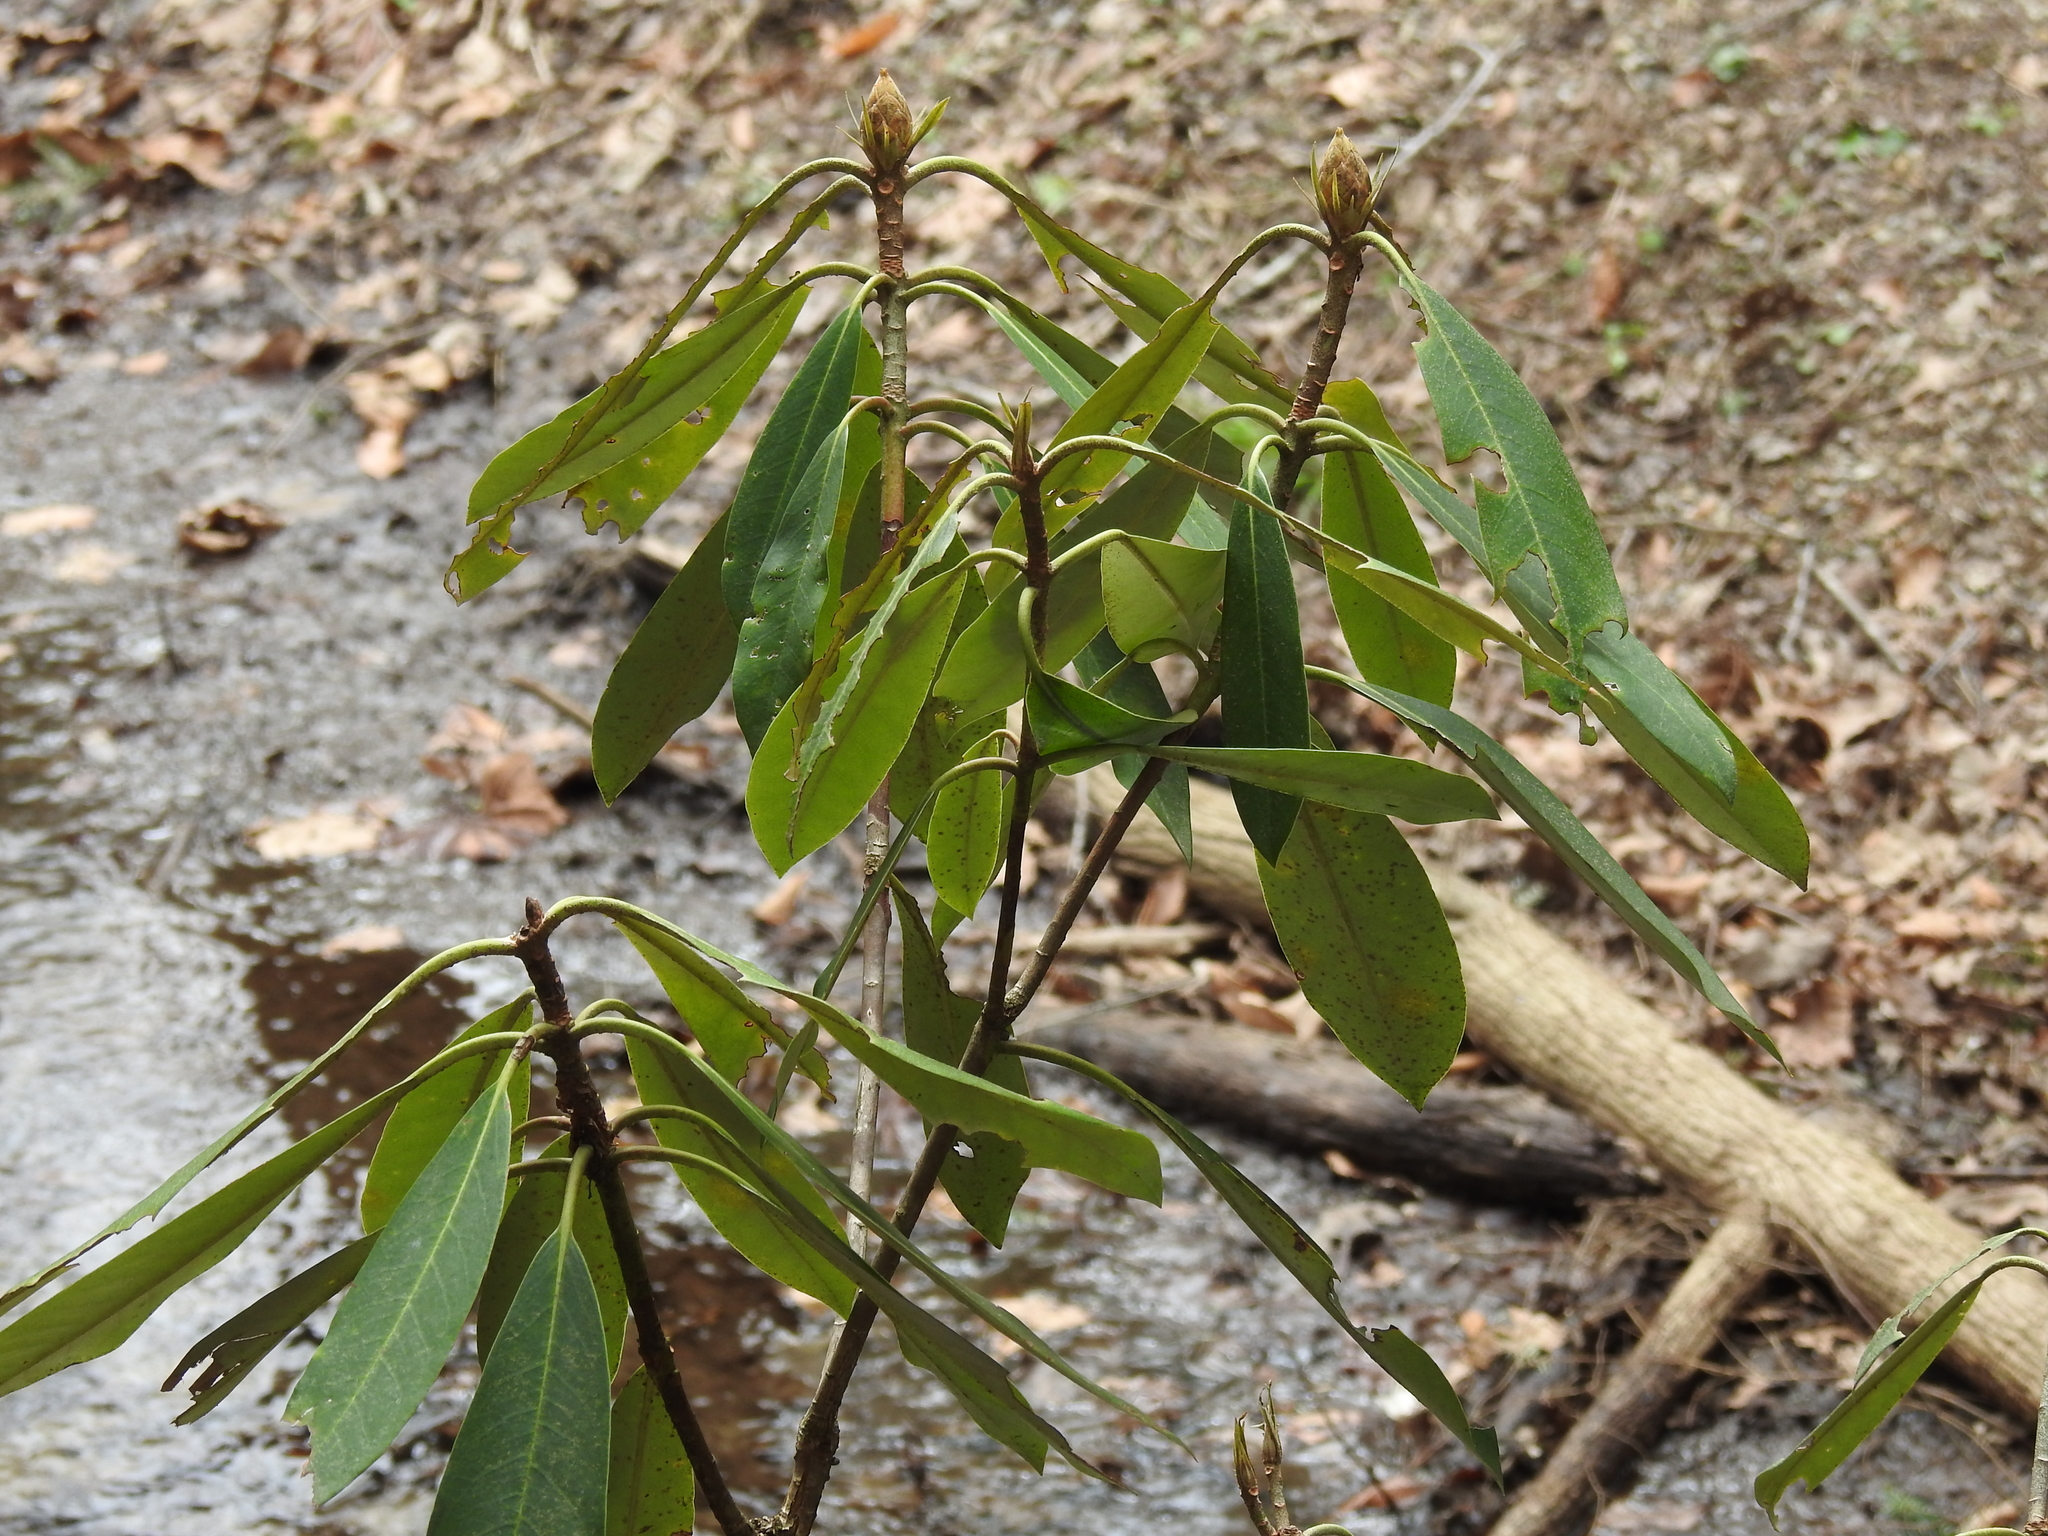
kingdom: Plantae
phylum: Tracheophyta
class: Magnoliopsida
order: Ericales
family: Ericaceae
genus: Rhododendron
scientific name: Rhododendron maximum
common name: Great rhododendron
